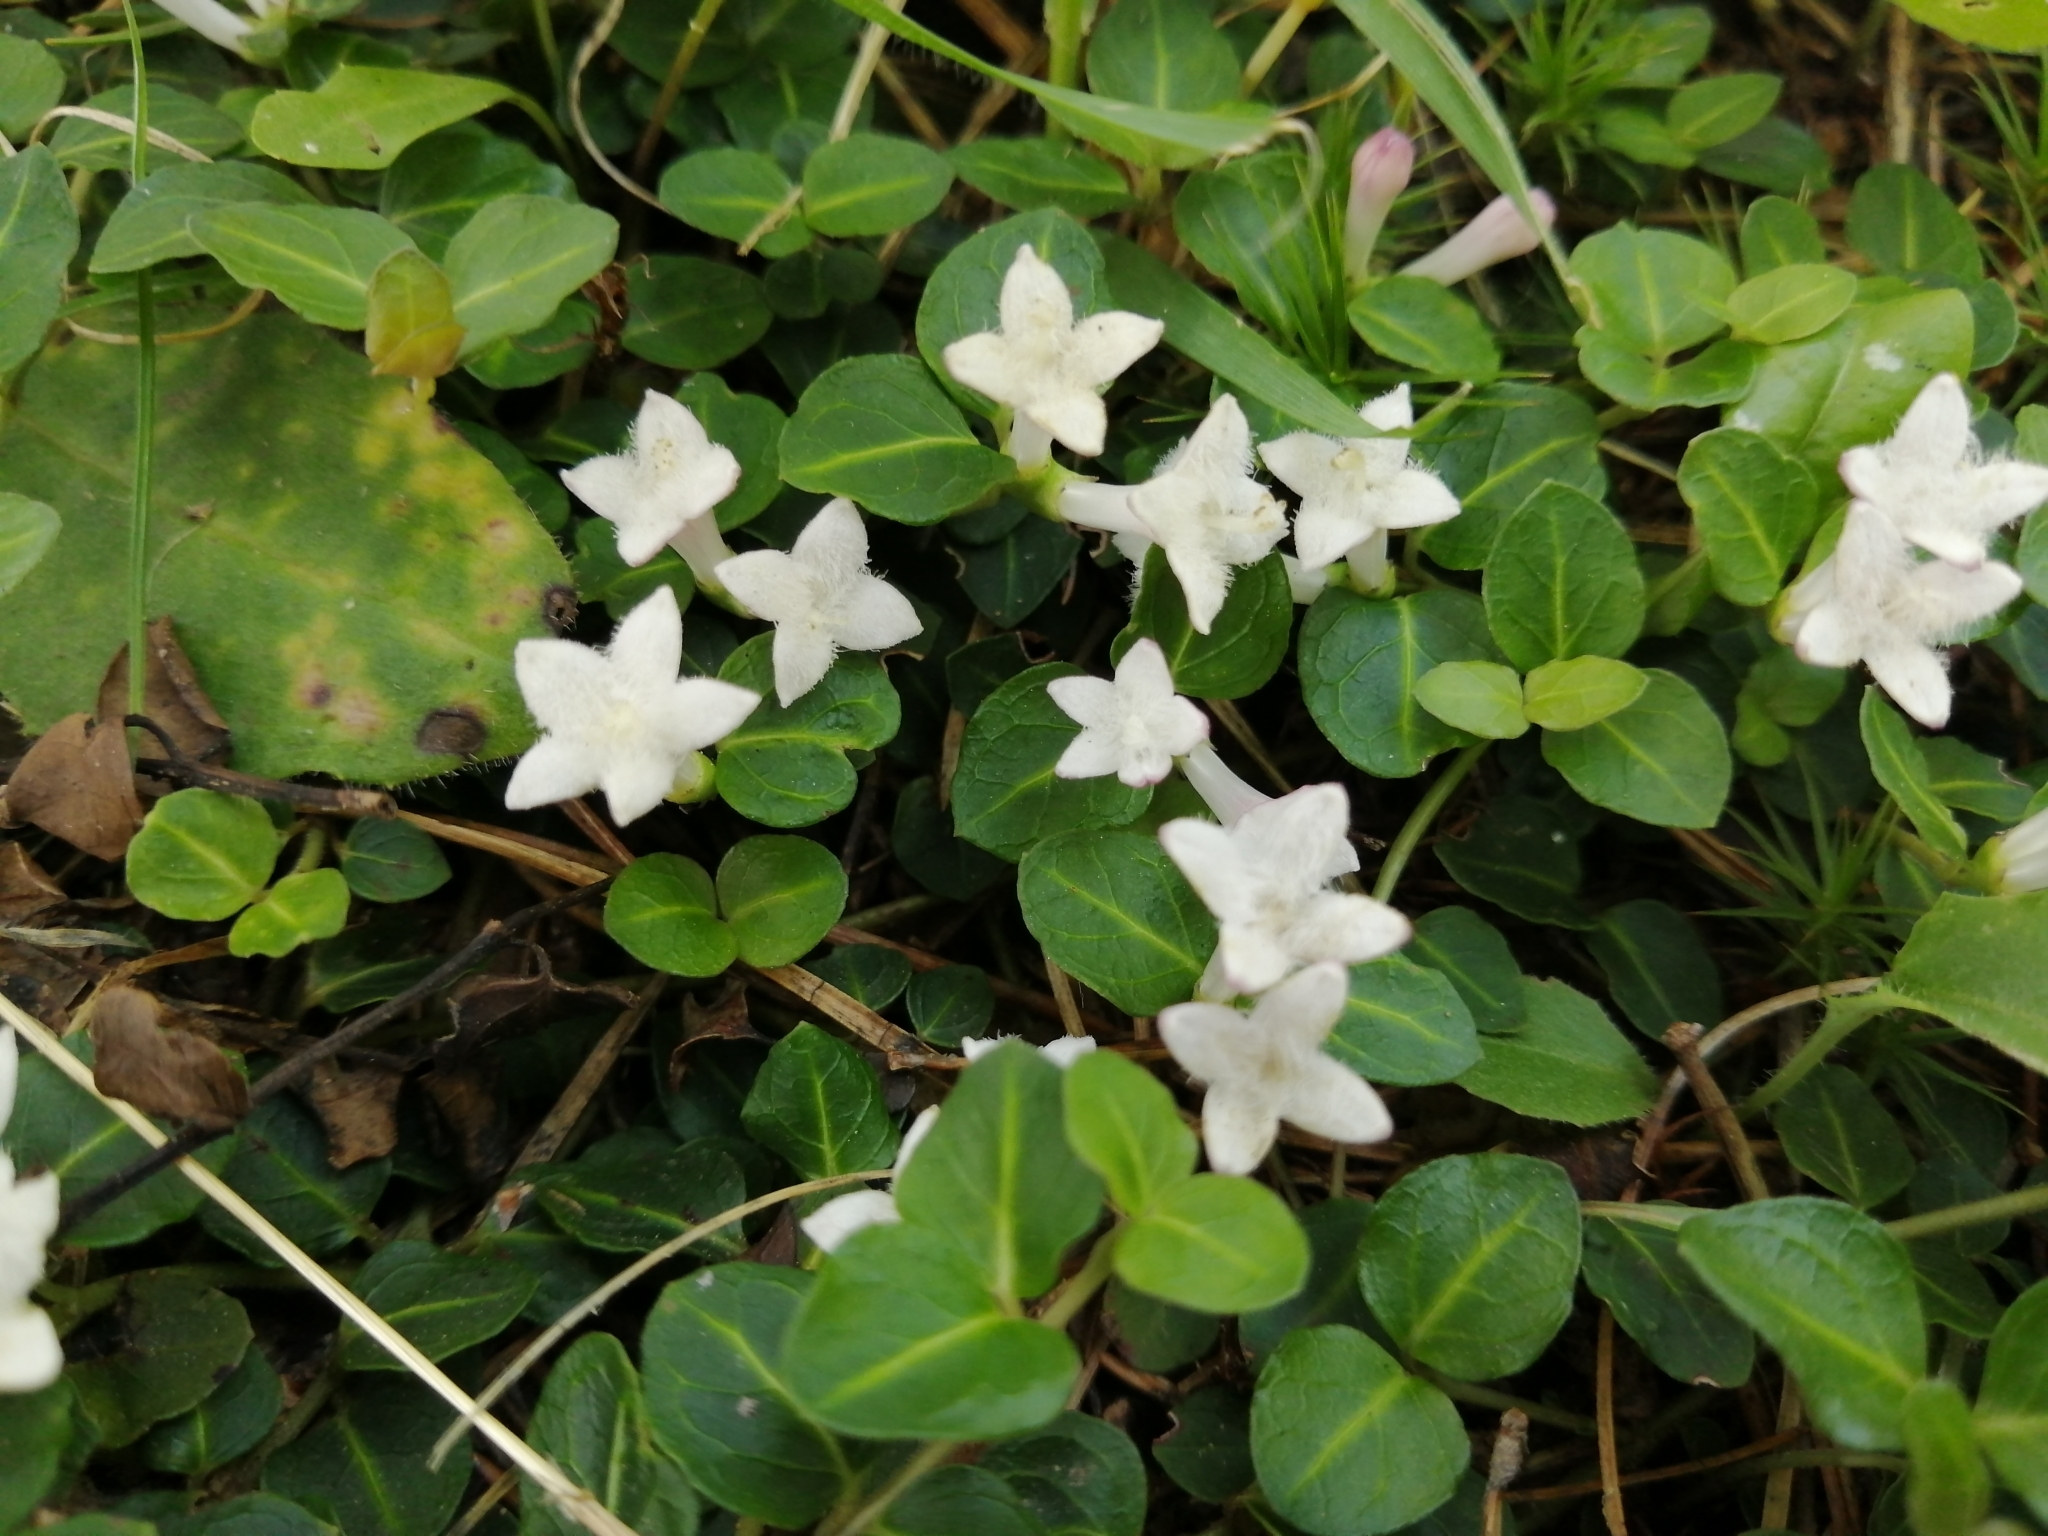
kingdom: Plantae
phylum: Tracheophyta
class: Magnoliopsida
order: Gentianales
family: Rubiaceae
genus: Mitchella
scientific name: Mitchella repens
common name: Partridge-berry
